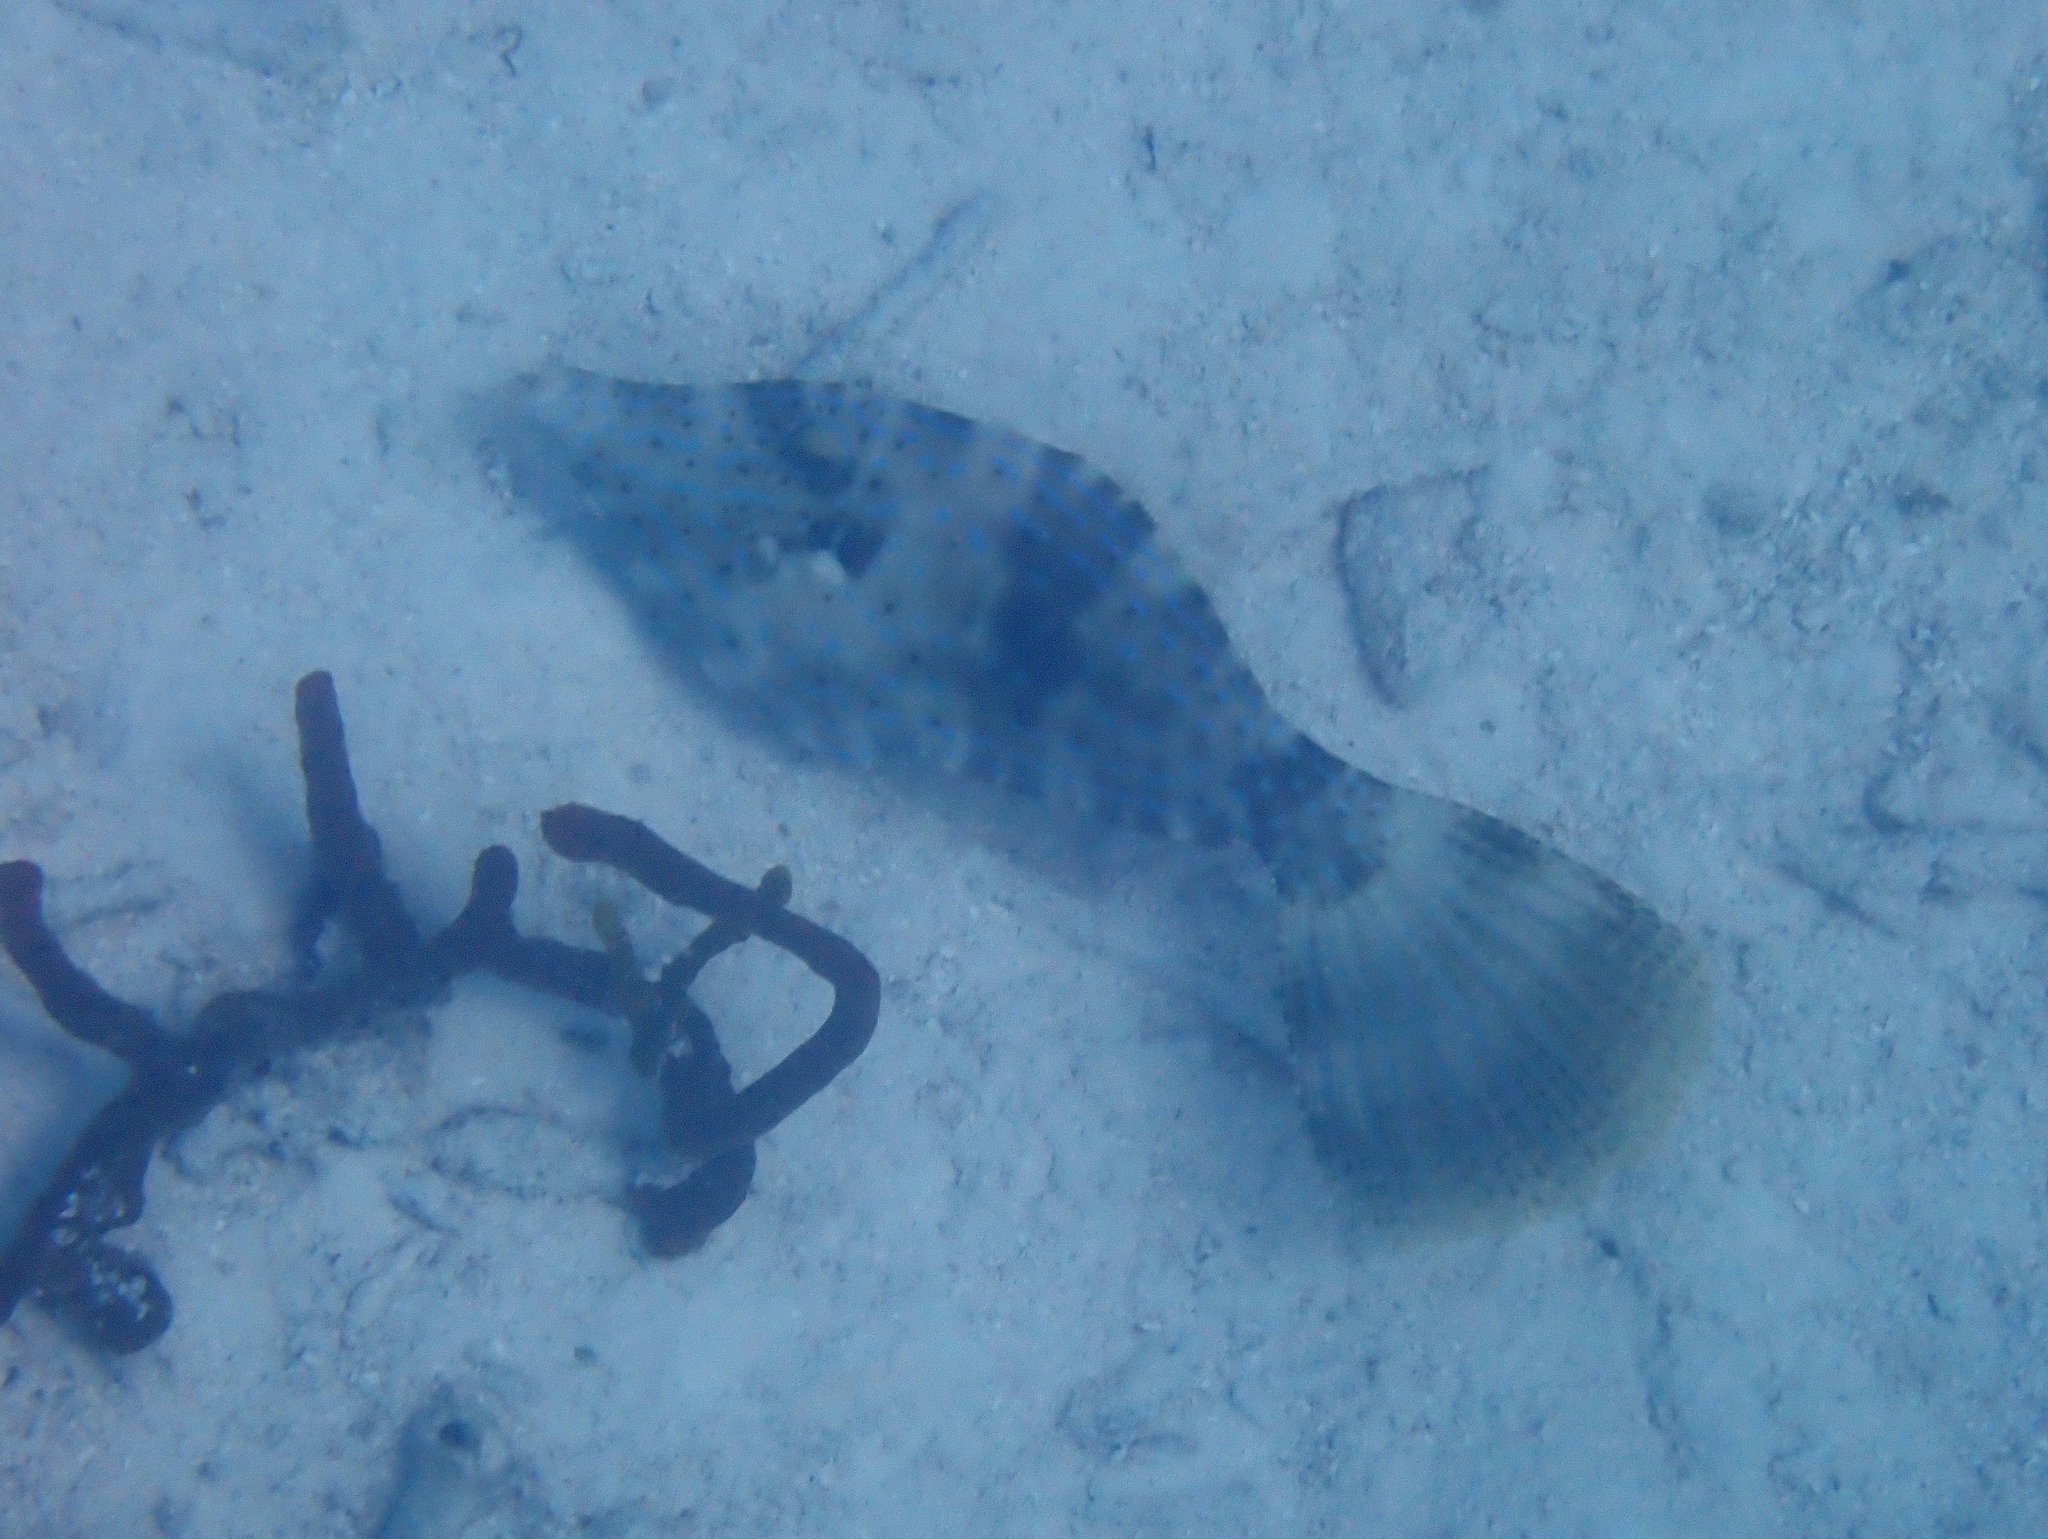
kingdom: Animalia
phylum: Chordata
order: Tetraodontiformes
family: Monacanthidae
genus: Aluterus
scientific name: Aluterus scriptus
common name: Scribbled leatherjacket filefish
